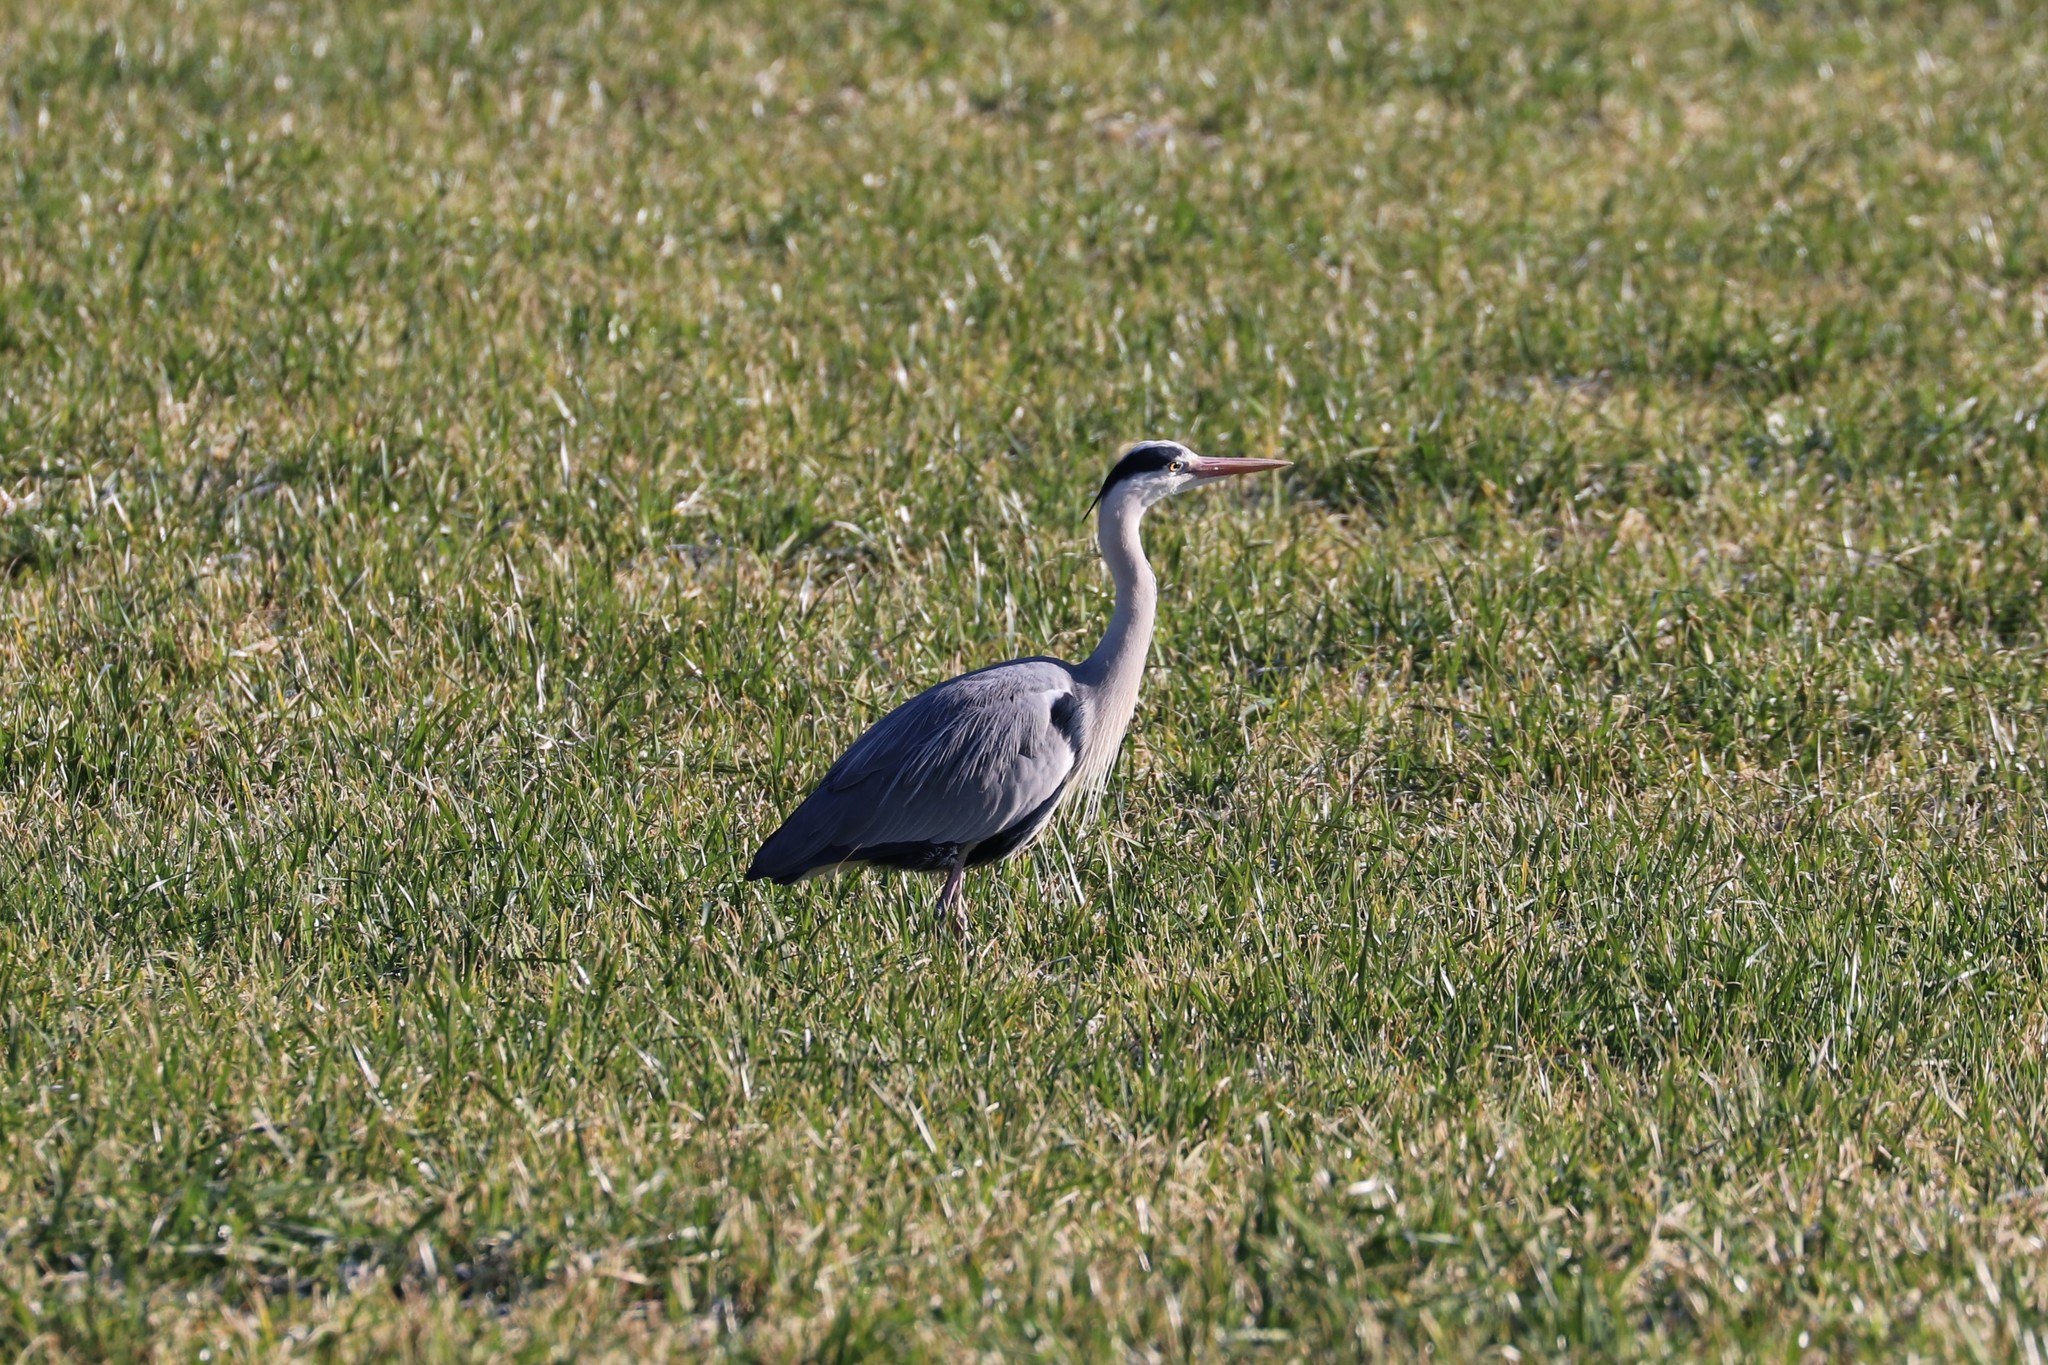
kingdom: Animalia
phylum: Chordata
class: Aves
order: Pelecaniformes
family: Ardeidae
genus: Ardea
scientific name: Ardea cinerea
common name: Grey heron
